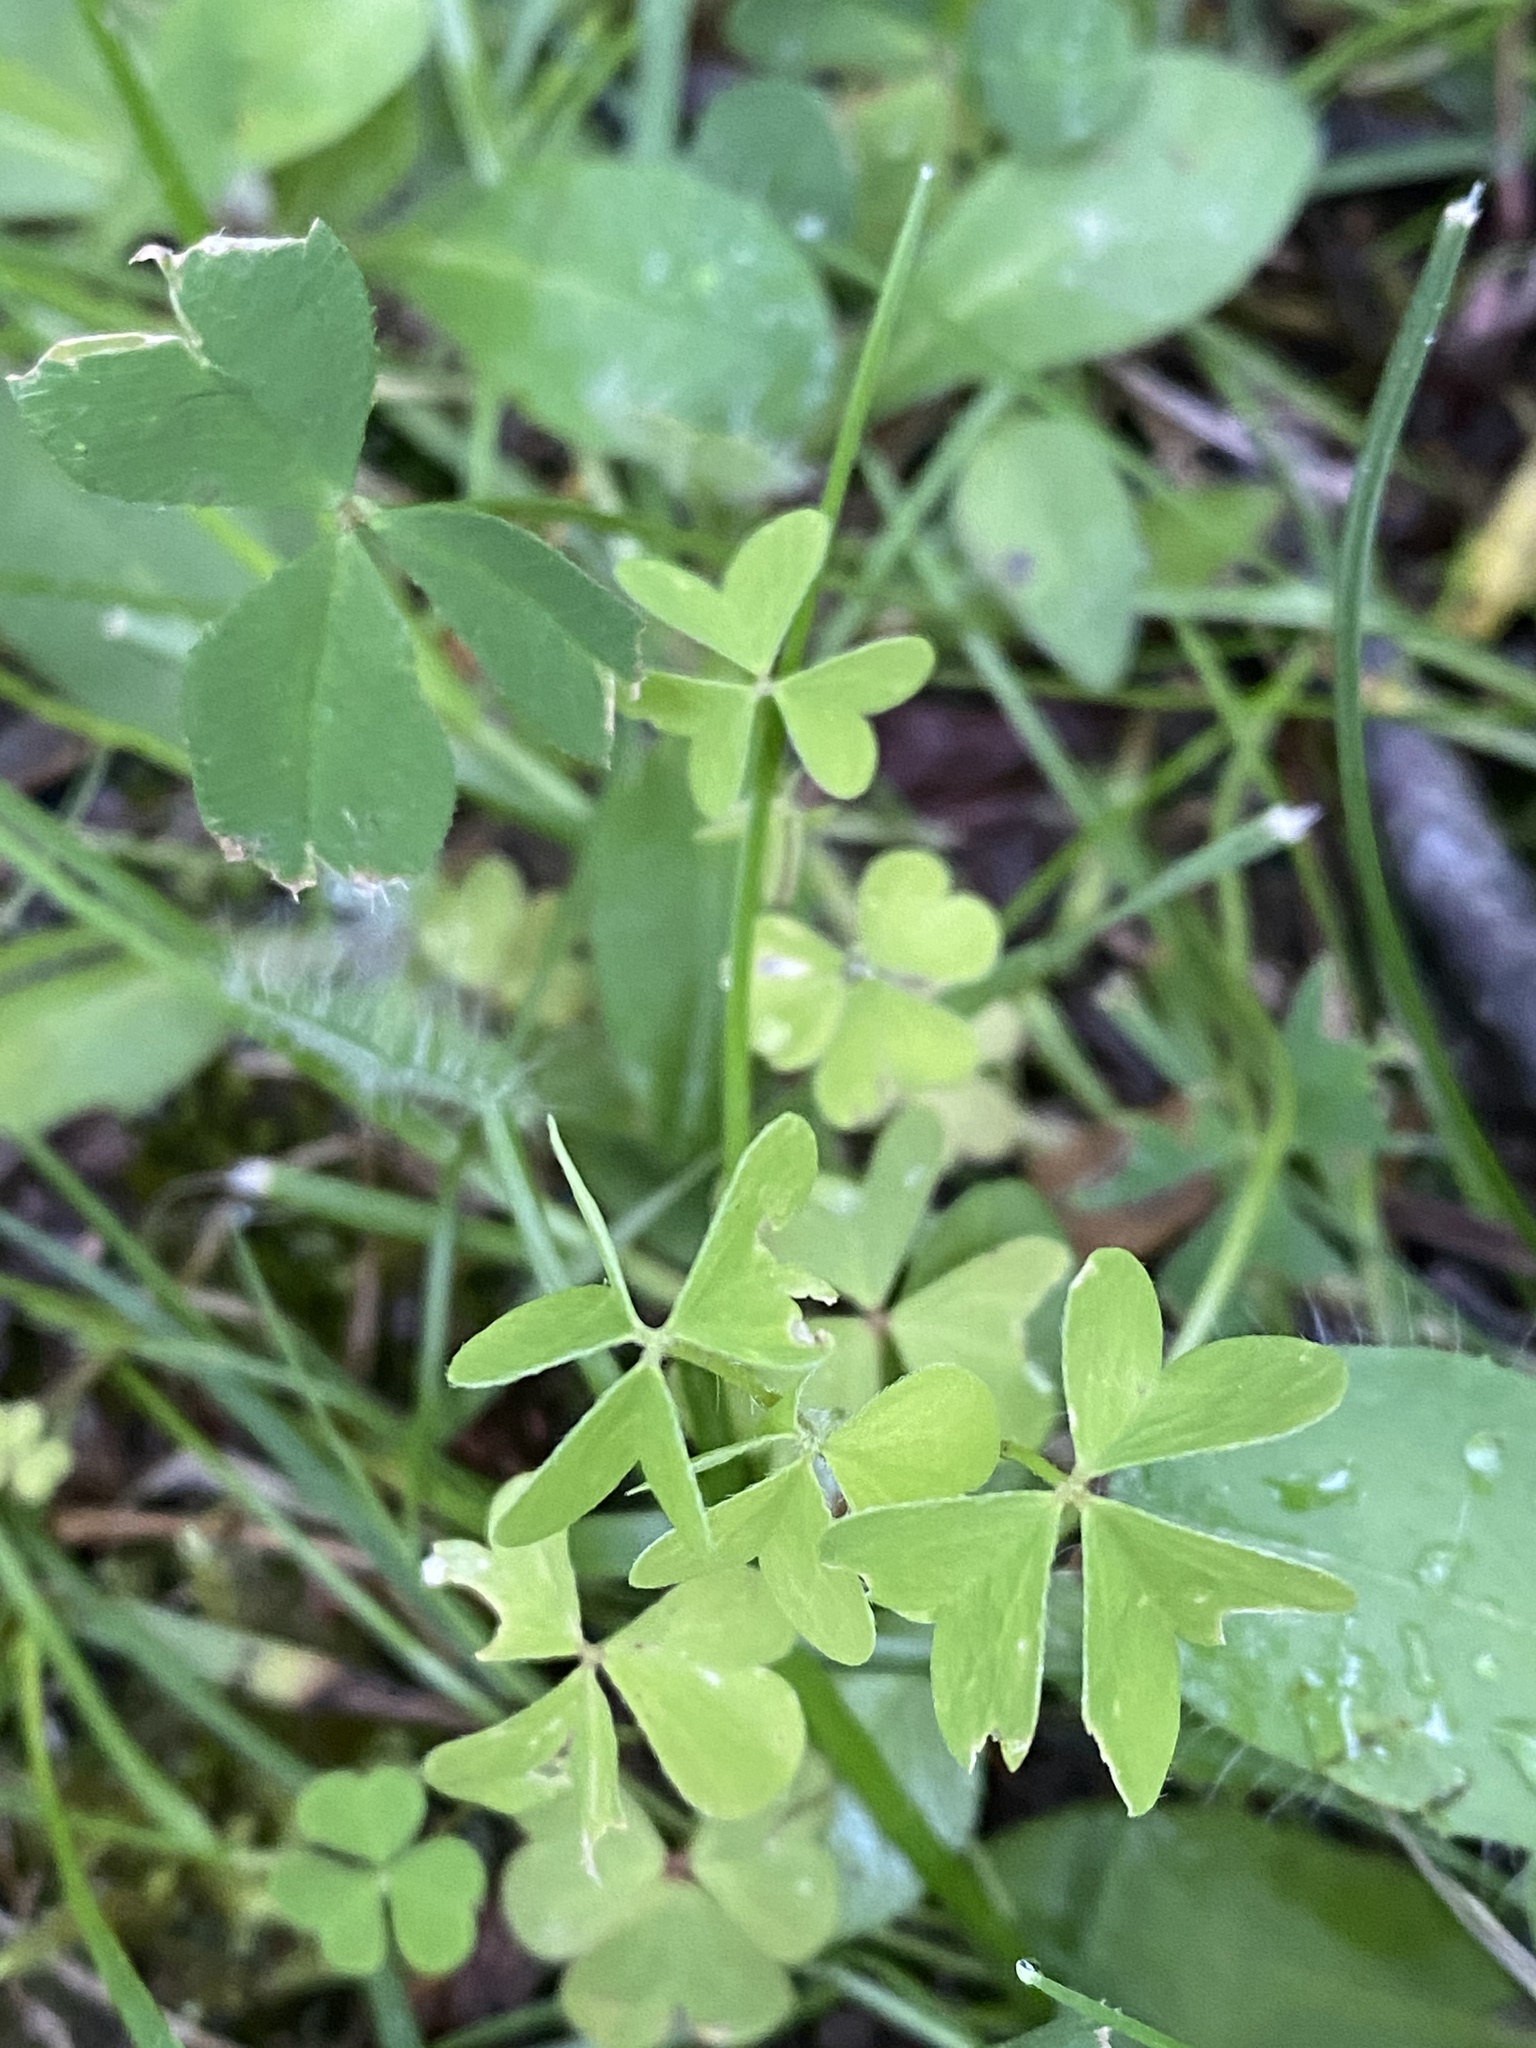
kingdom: Plantae
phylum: Tracheophyta
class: Magnoliopsida
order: Oxalidales
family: Oxalidaceae
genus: Oxalis
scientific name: Oxalis stricta
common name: Upright yellow-sorrel
